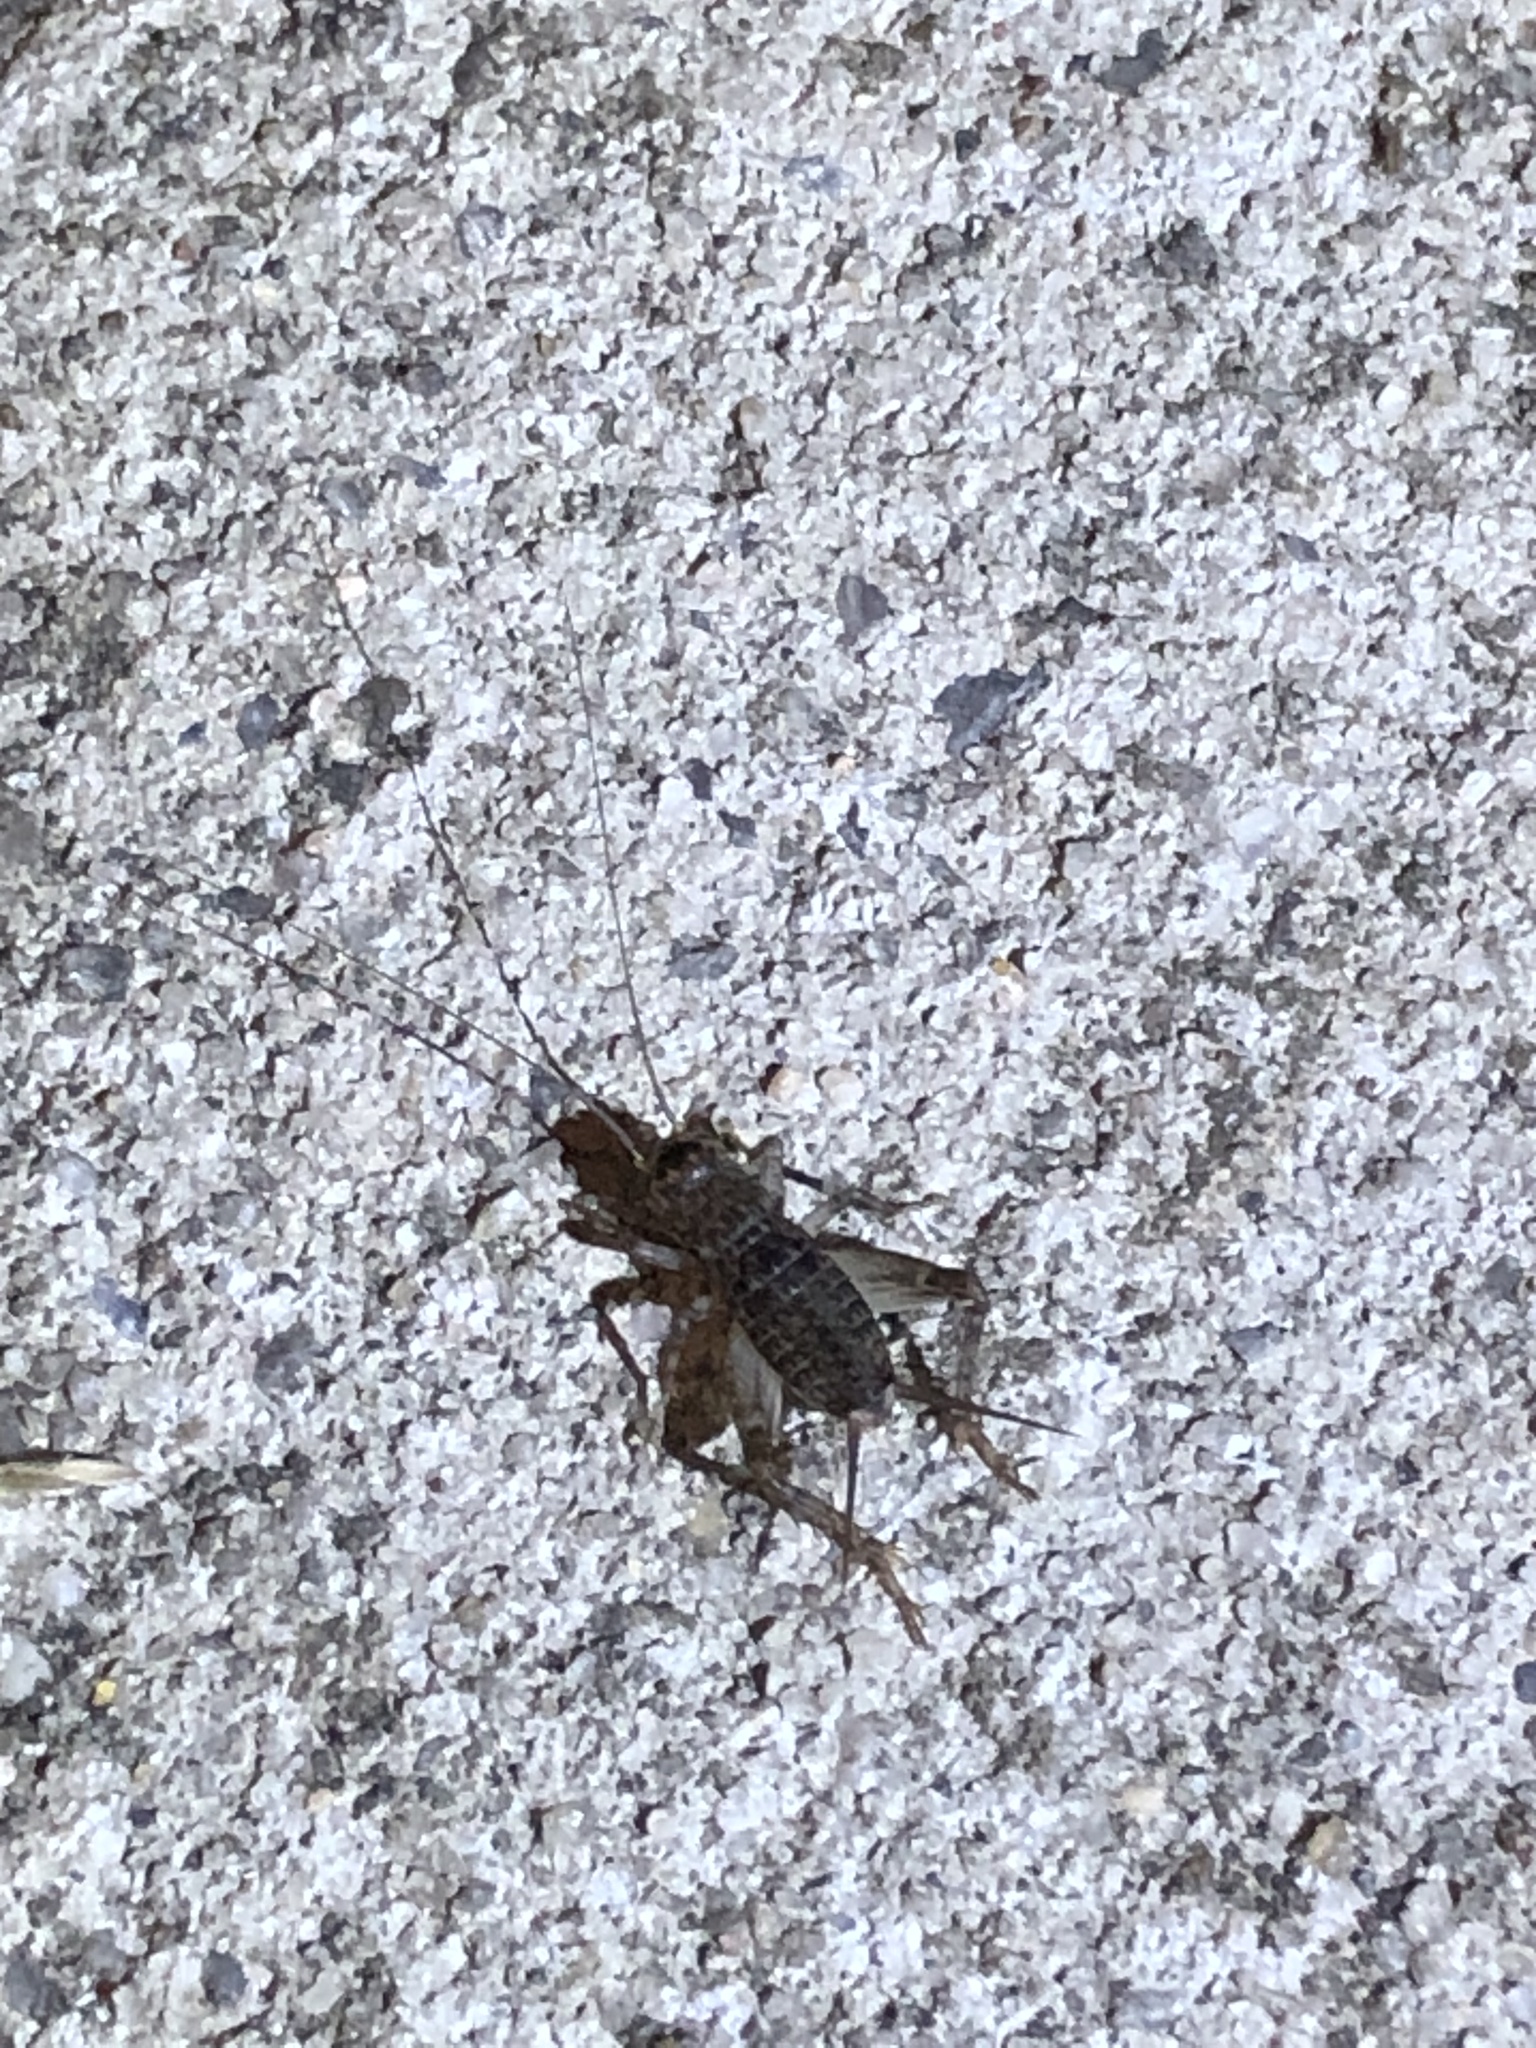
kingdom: Animalia
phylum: Arthropoda
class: Insecta
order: Orthoptera
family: Gryllidae
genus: Velarifictorus
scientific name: Velarifictorus micado
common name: Japanese burrowing cricket
